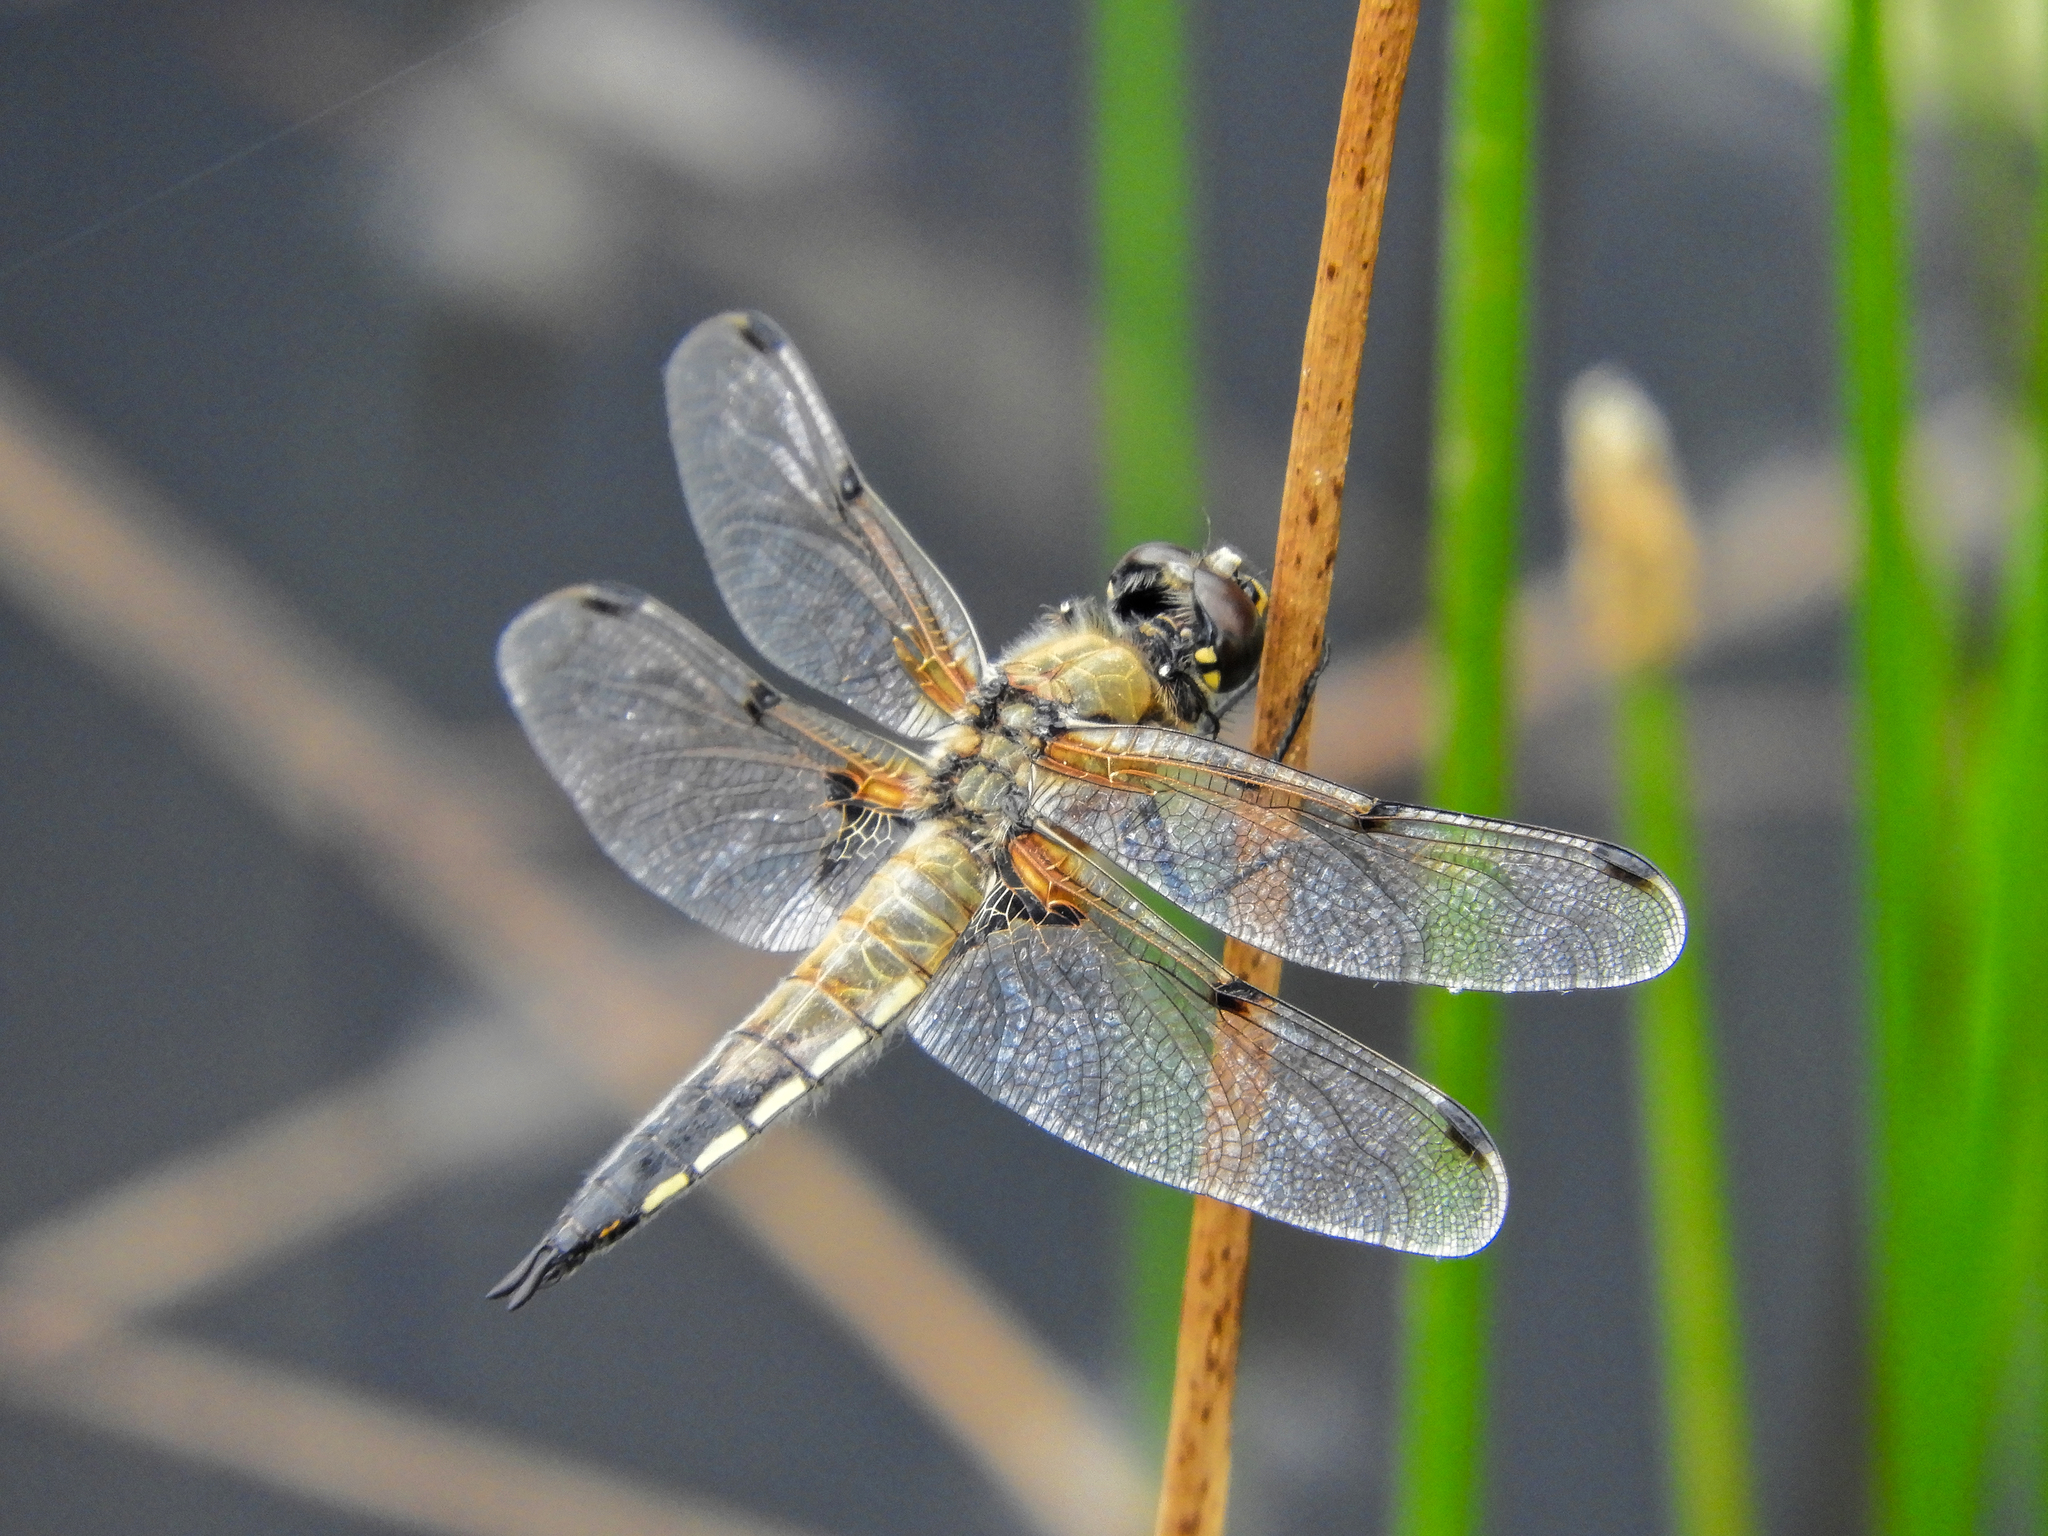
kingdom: Animalia
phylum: Arthropoda
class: Insecta
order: Odonata
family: Libellulidae
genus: Libellula
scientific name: Libellula quadrimaculata
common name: Four-spotted chaser
